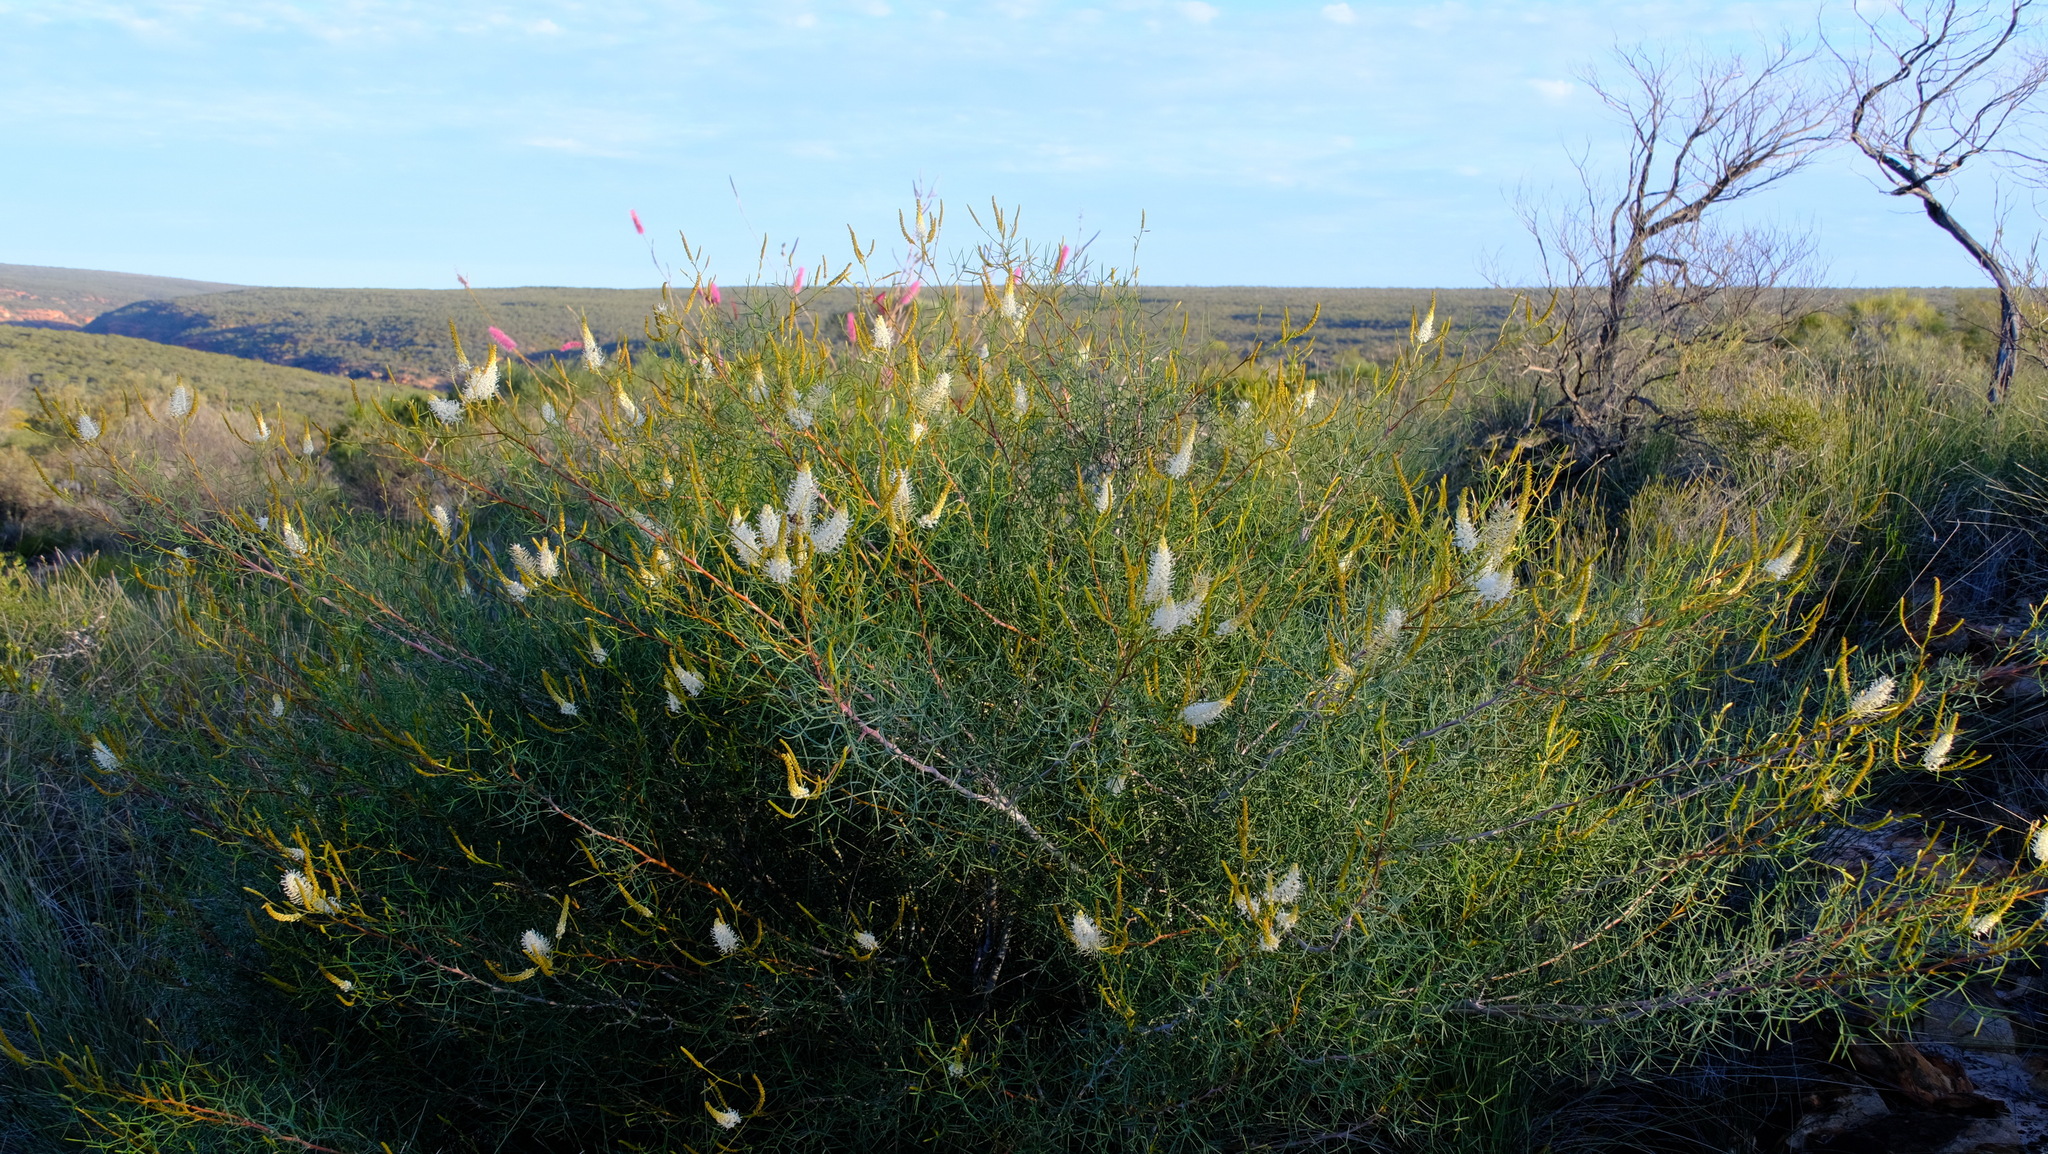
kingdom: Plantae
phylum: Tracheophyta
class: Magnoliopsida
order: Proteales
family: Proteaceae
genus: Grevillea
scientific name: Grevillea leucoclada
